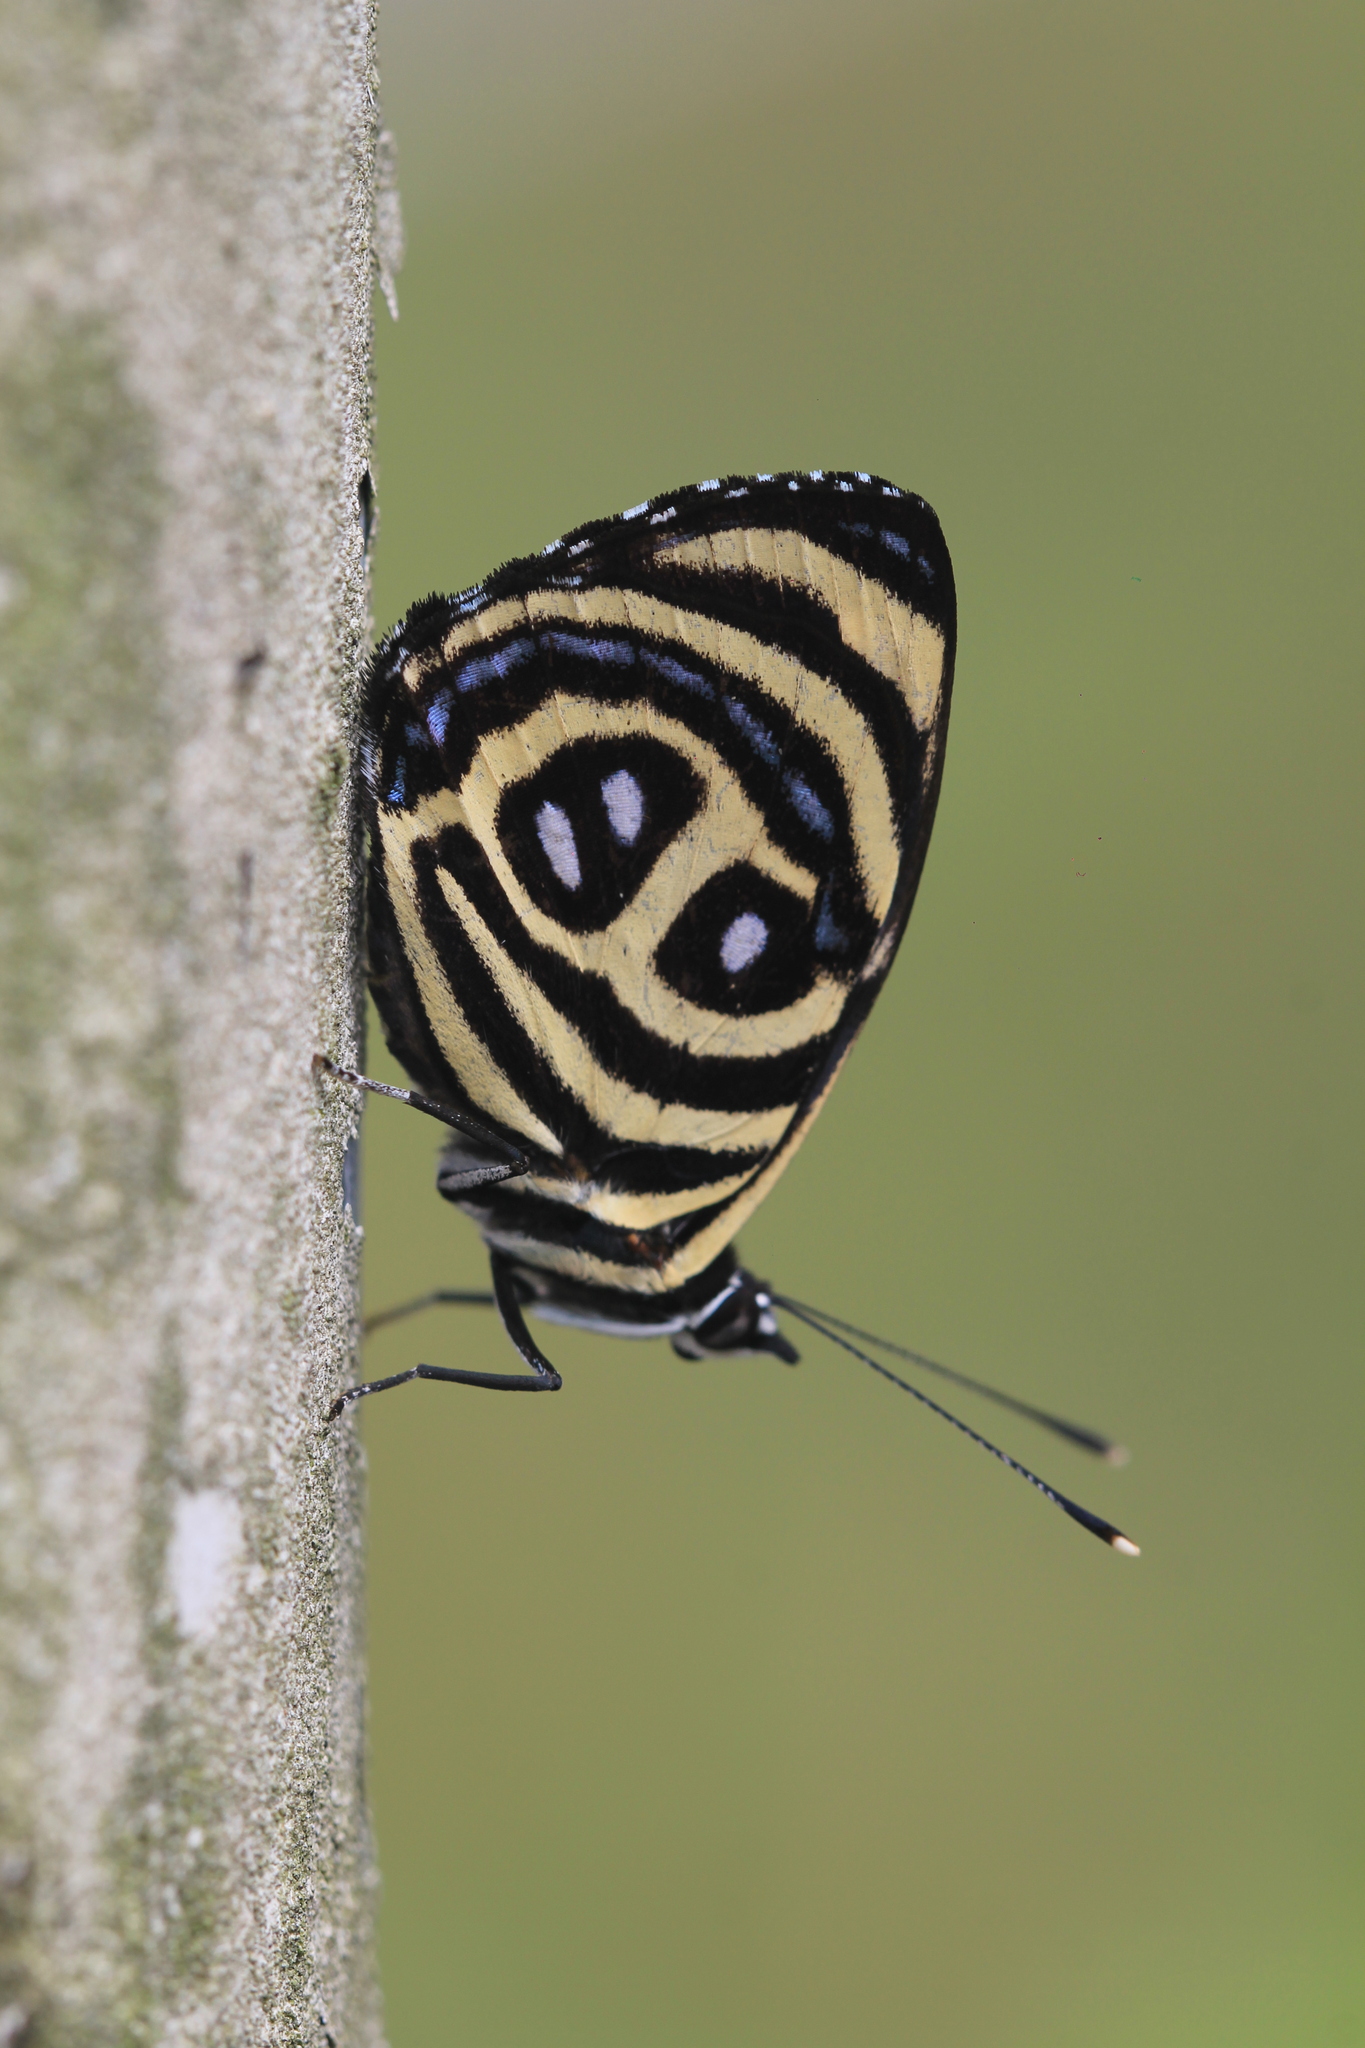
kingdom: Animalia
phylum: Arthropoda
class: Insecta
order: Lepidoptera
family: Nymphalidae
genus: Catagramma
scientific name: Catagramma pyracmon
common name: Google-eyed eighty-eight
